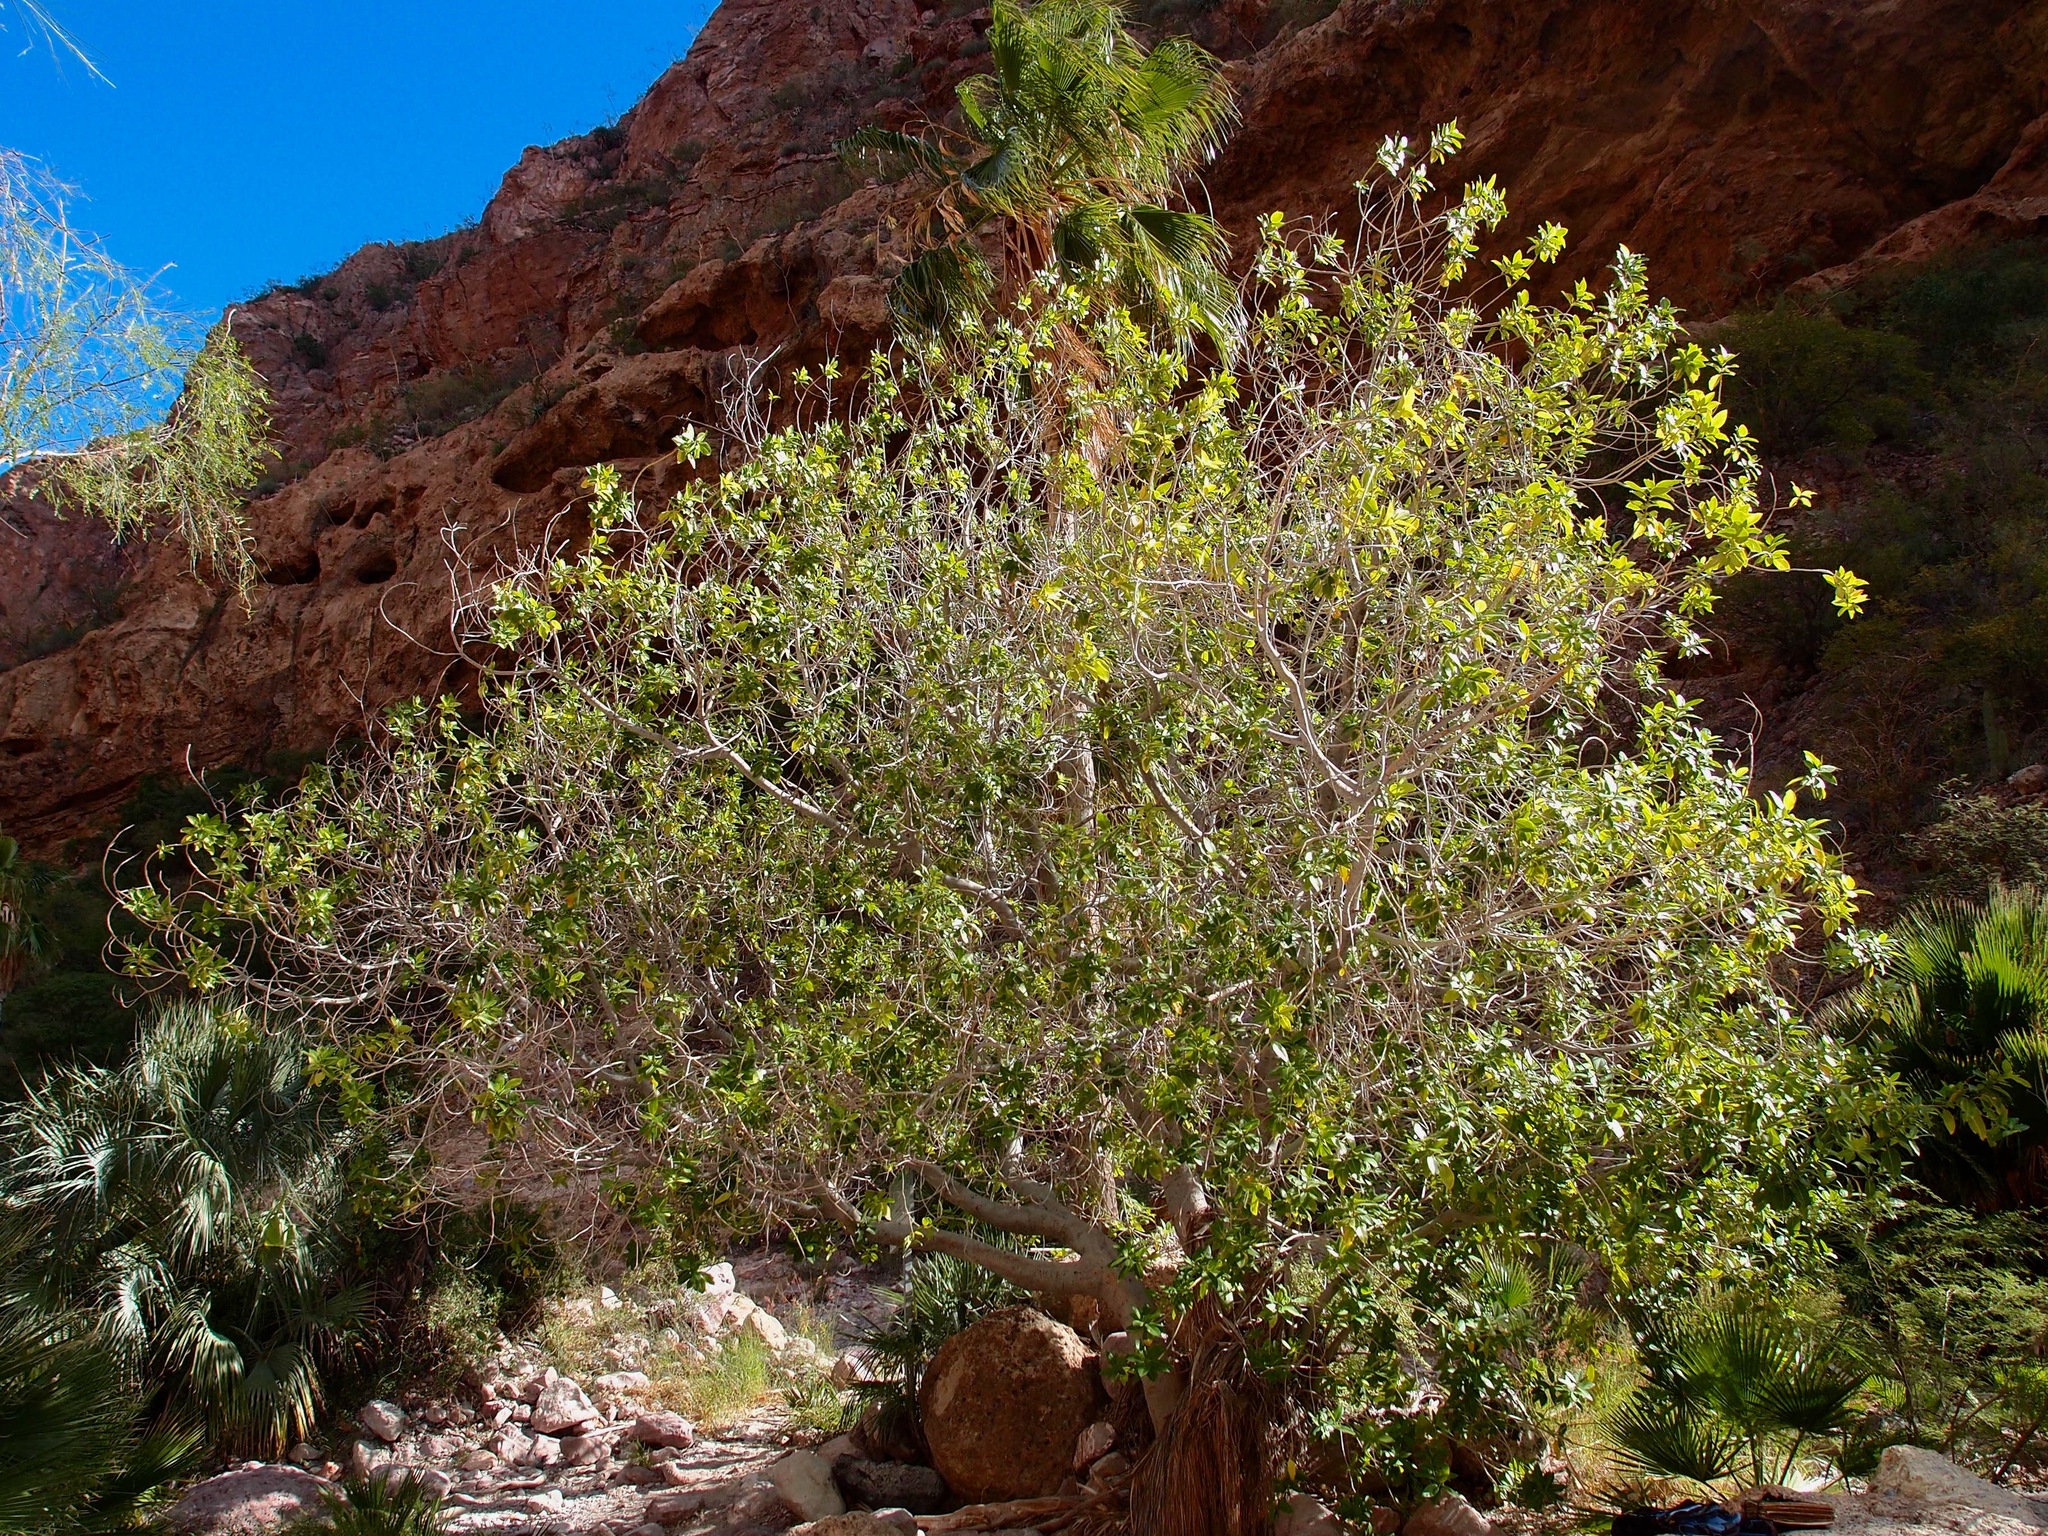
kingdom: Plantae
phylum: Tracheophyta
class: Magnoliopsida
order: Rosales
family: Moraceae
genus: Ficus
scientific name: Ficus insipida
